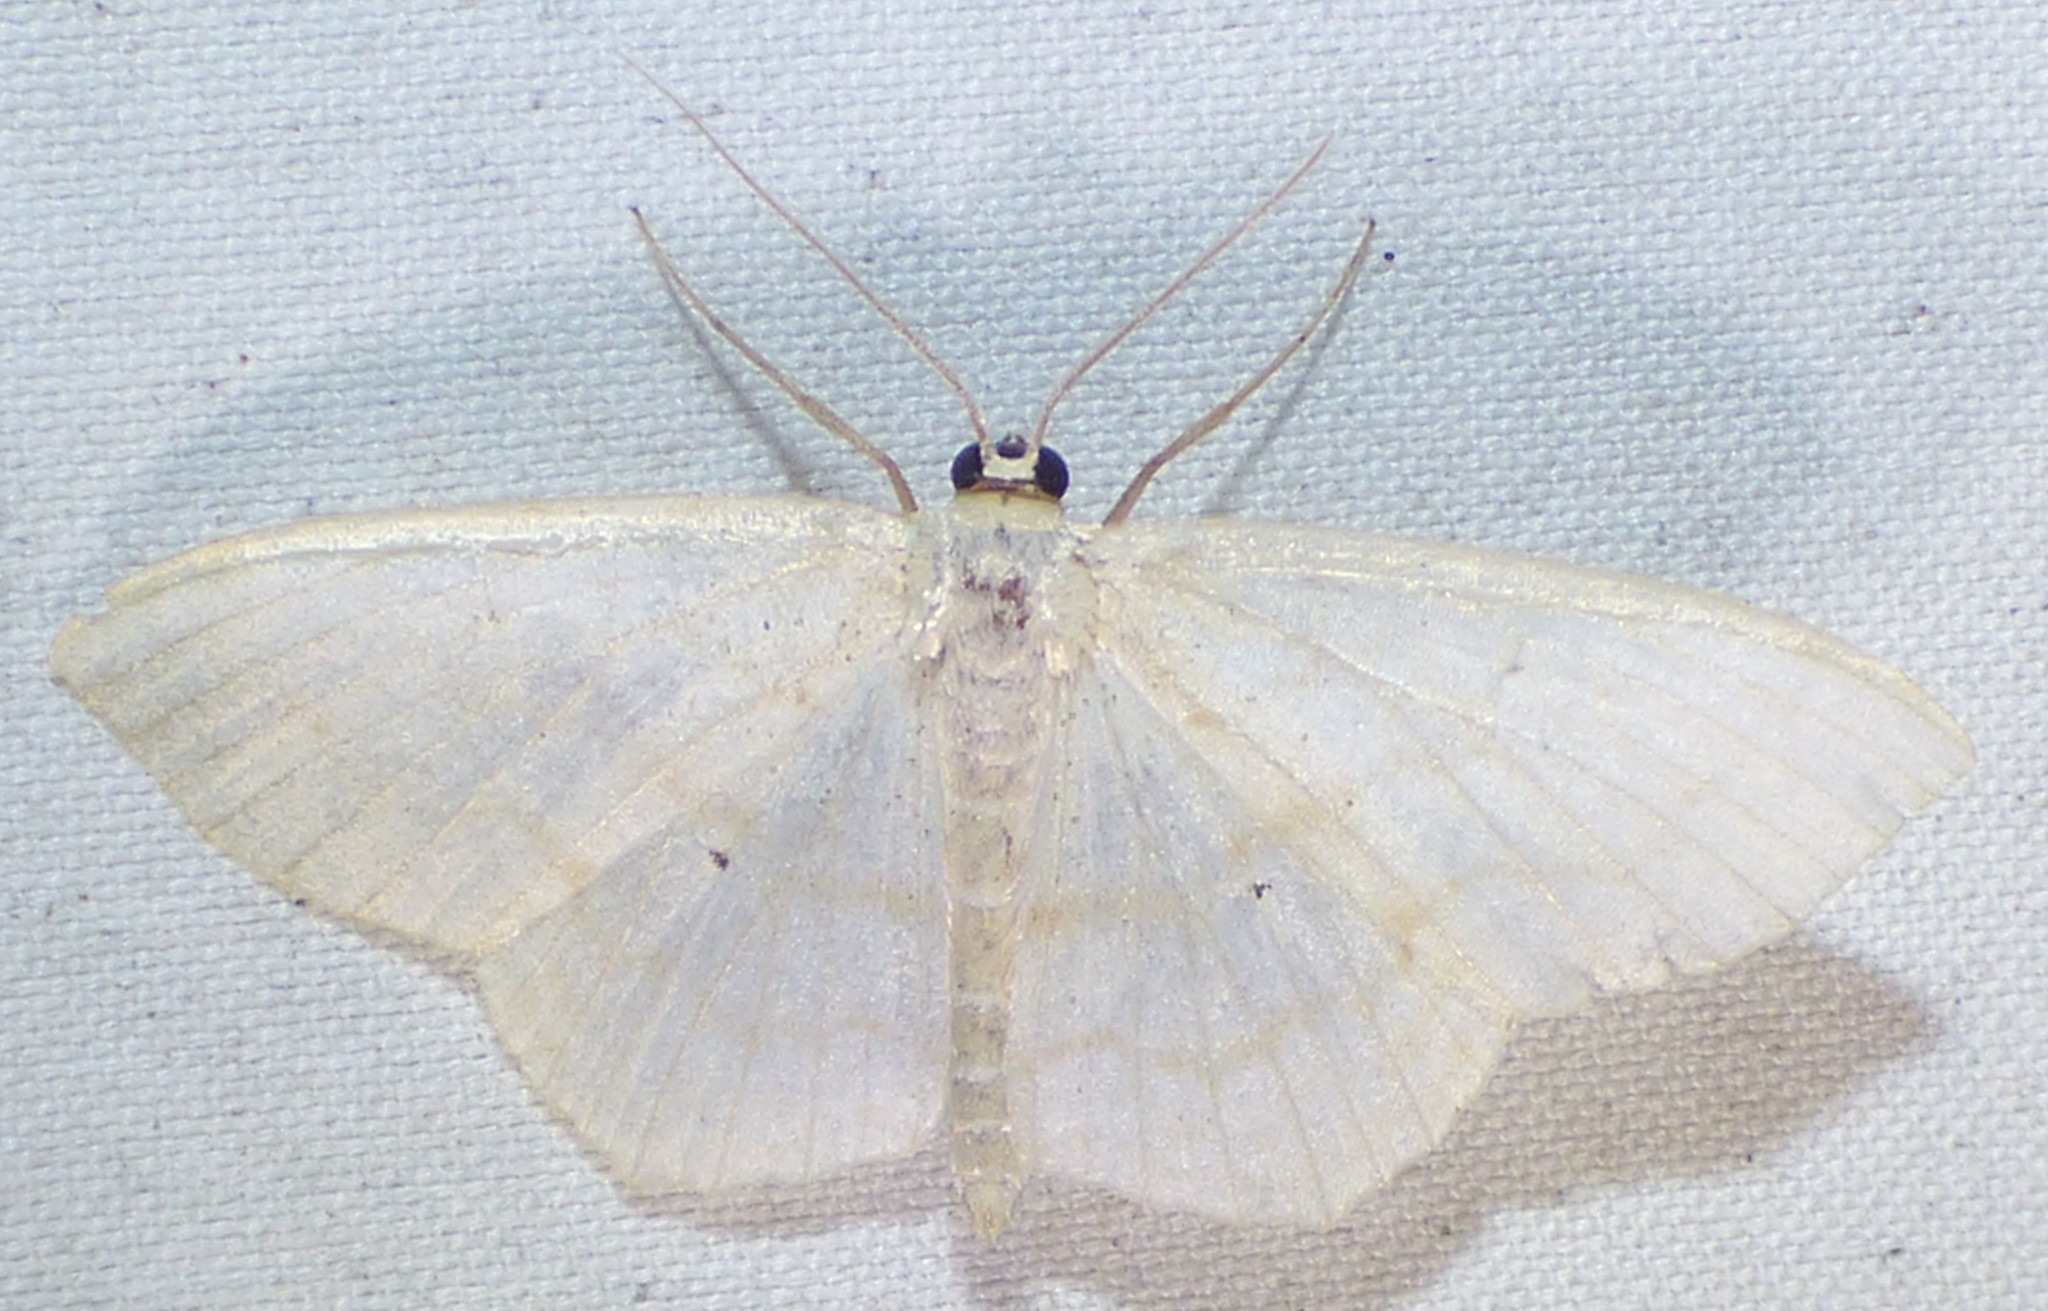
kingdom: Animalia
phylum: Arthropoda
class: Insecta
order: Lepidoptera
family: Geometridae
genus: Scopula
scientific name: Scopula limboundata
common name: Large lace border
